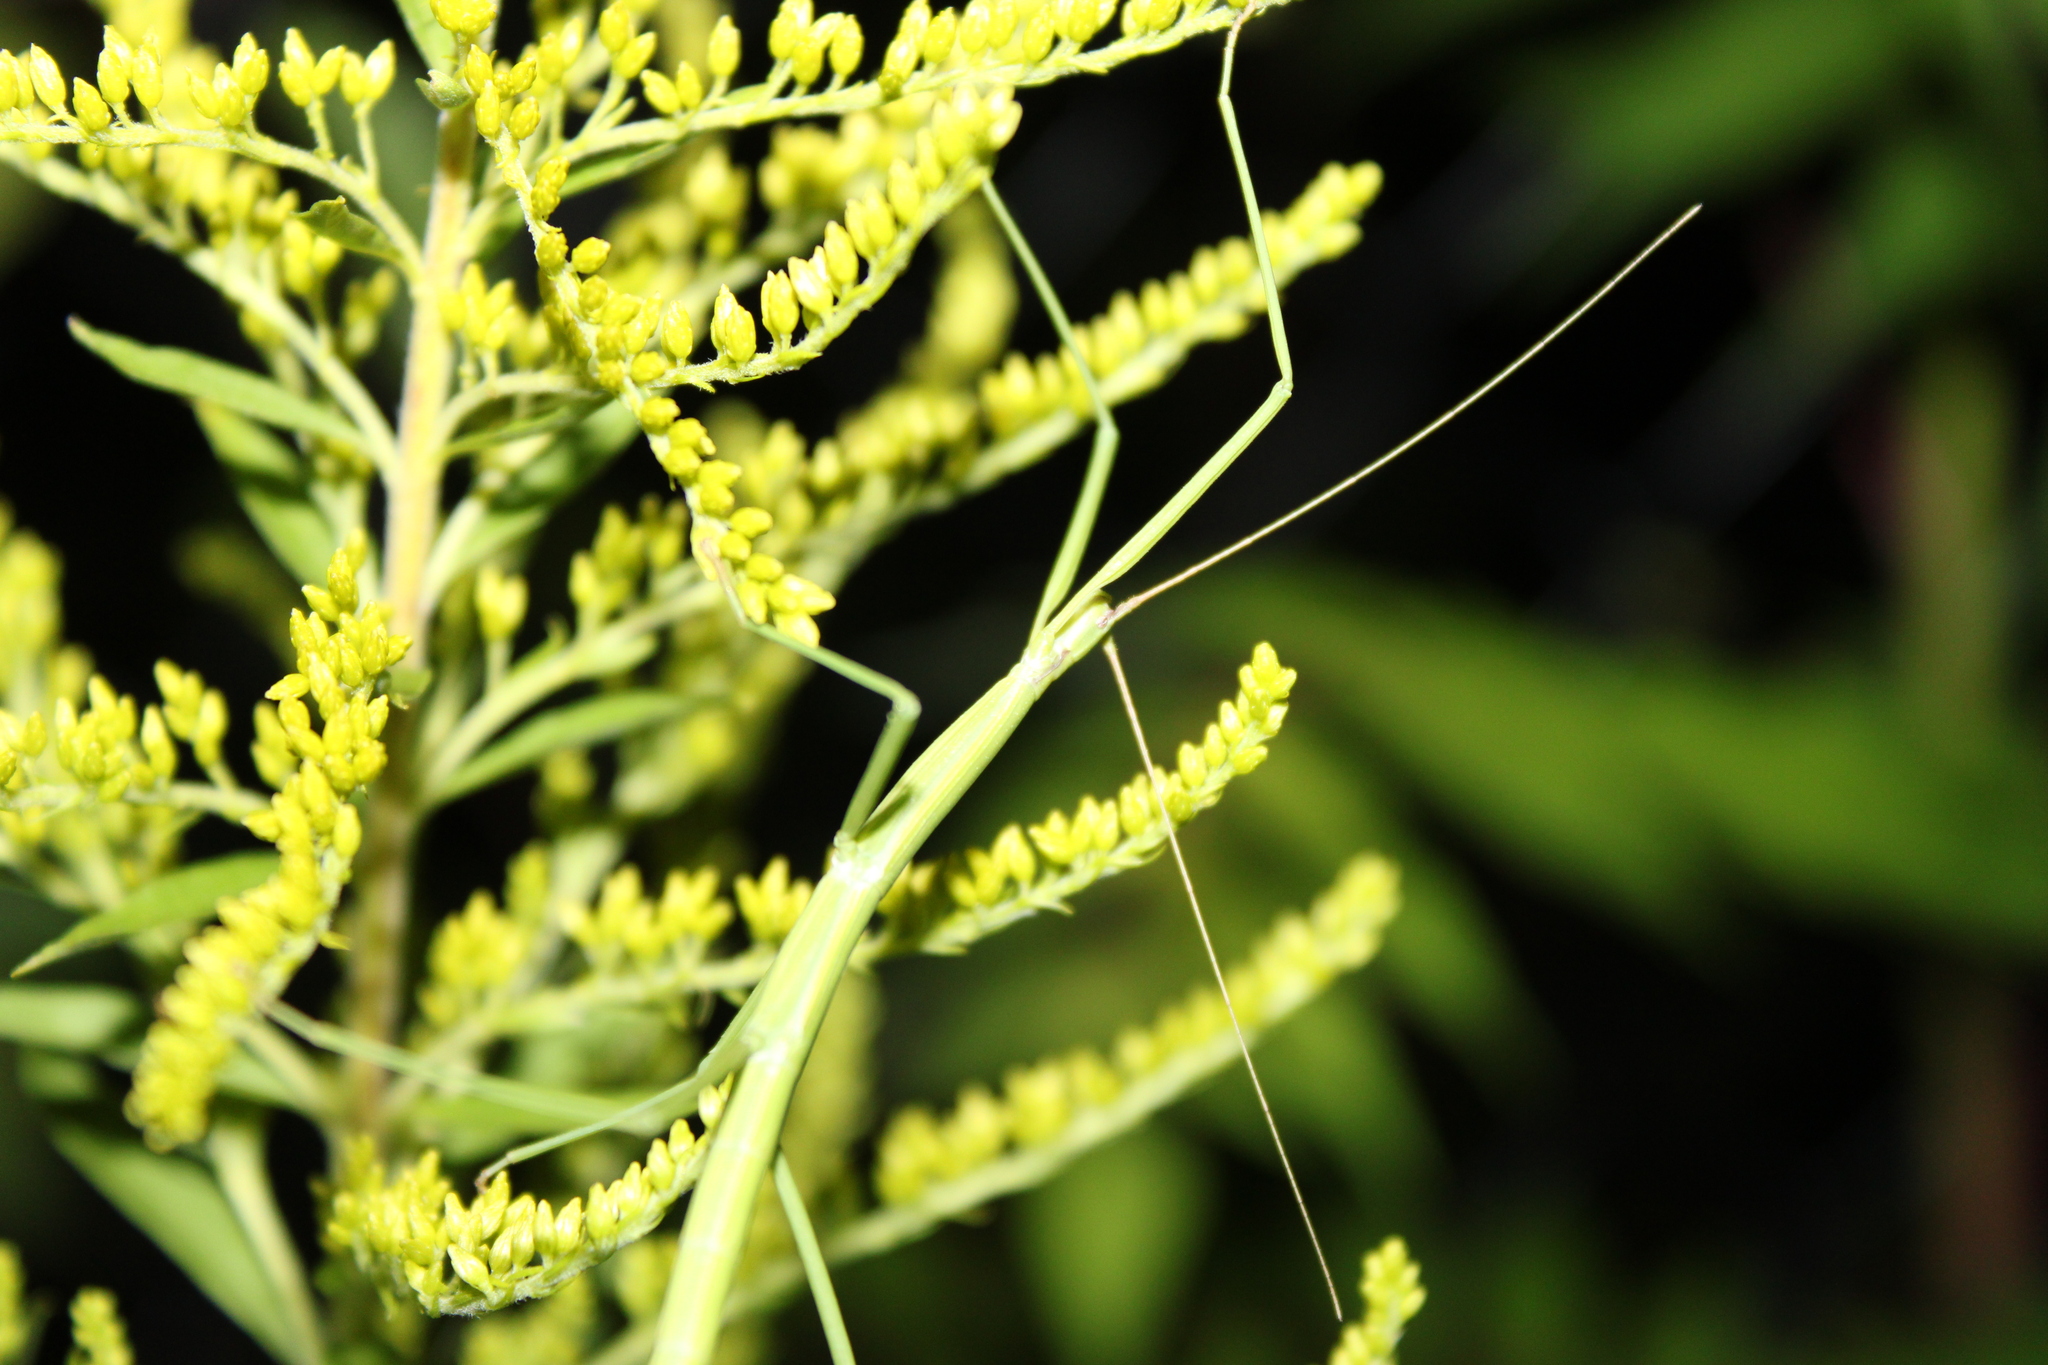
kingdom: Animalia
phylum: Arthropoda
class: Insecta
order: Phasmida
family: Diapheromeridae
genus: Manomera
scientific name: Manomera blatchleyi
